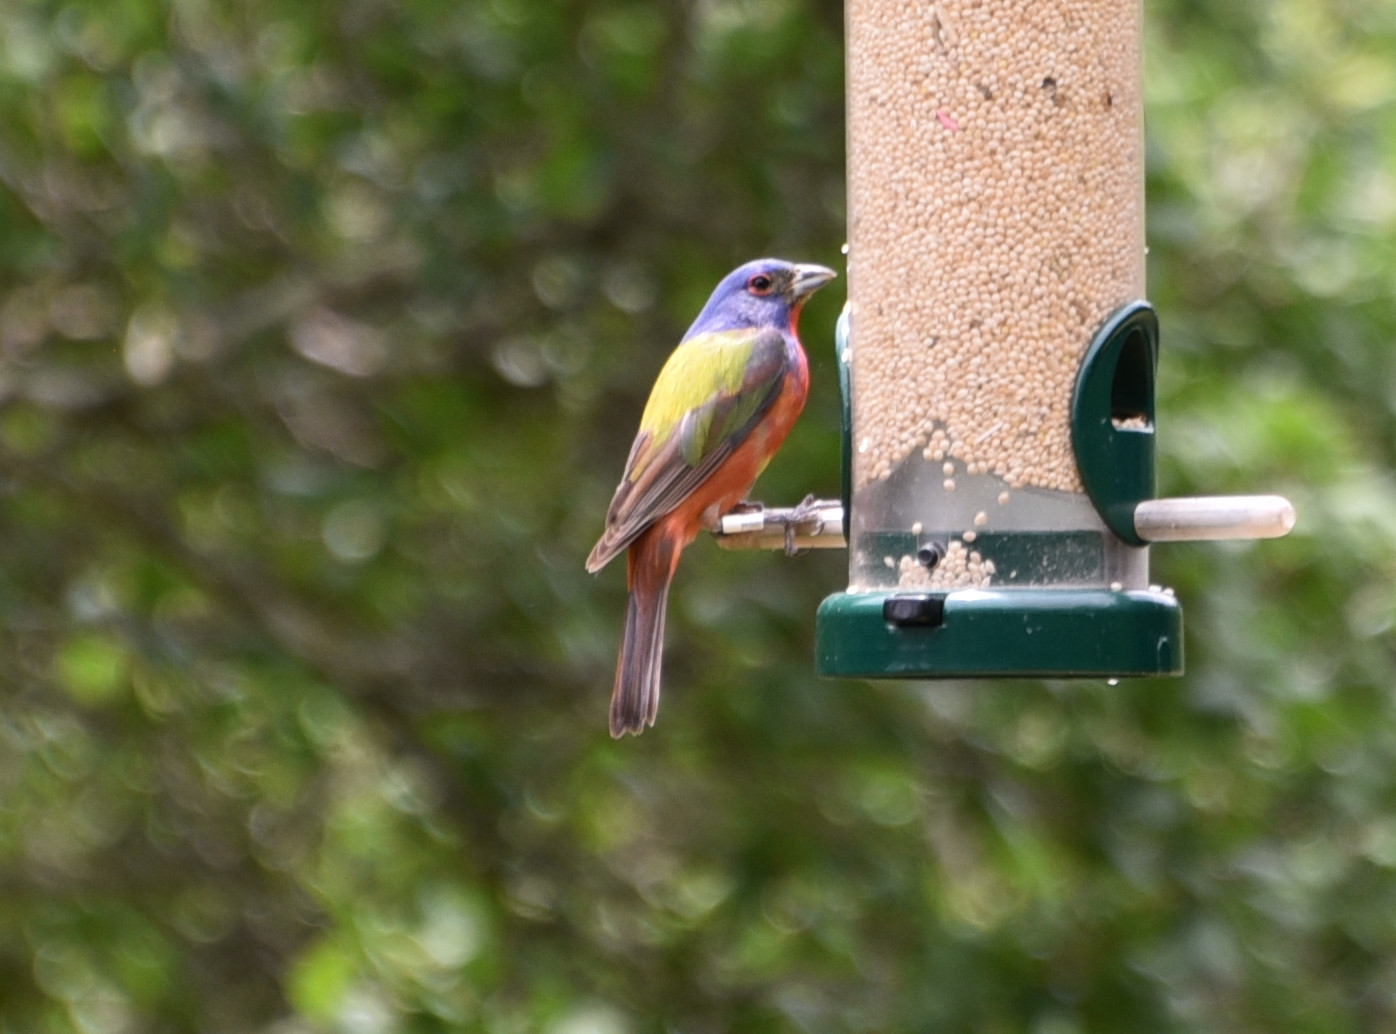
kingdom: Animalia
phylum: Chordata
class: Aves
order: Passeriformes
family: Cardinalidae
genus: Passerina
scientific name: Passerina ciris
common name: Painted bunting
